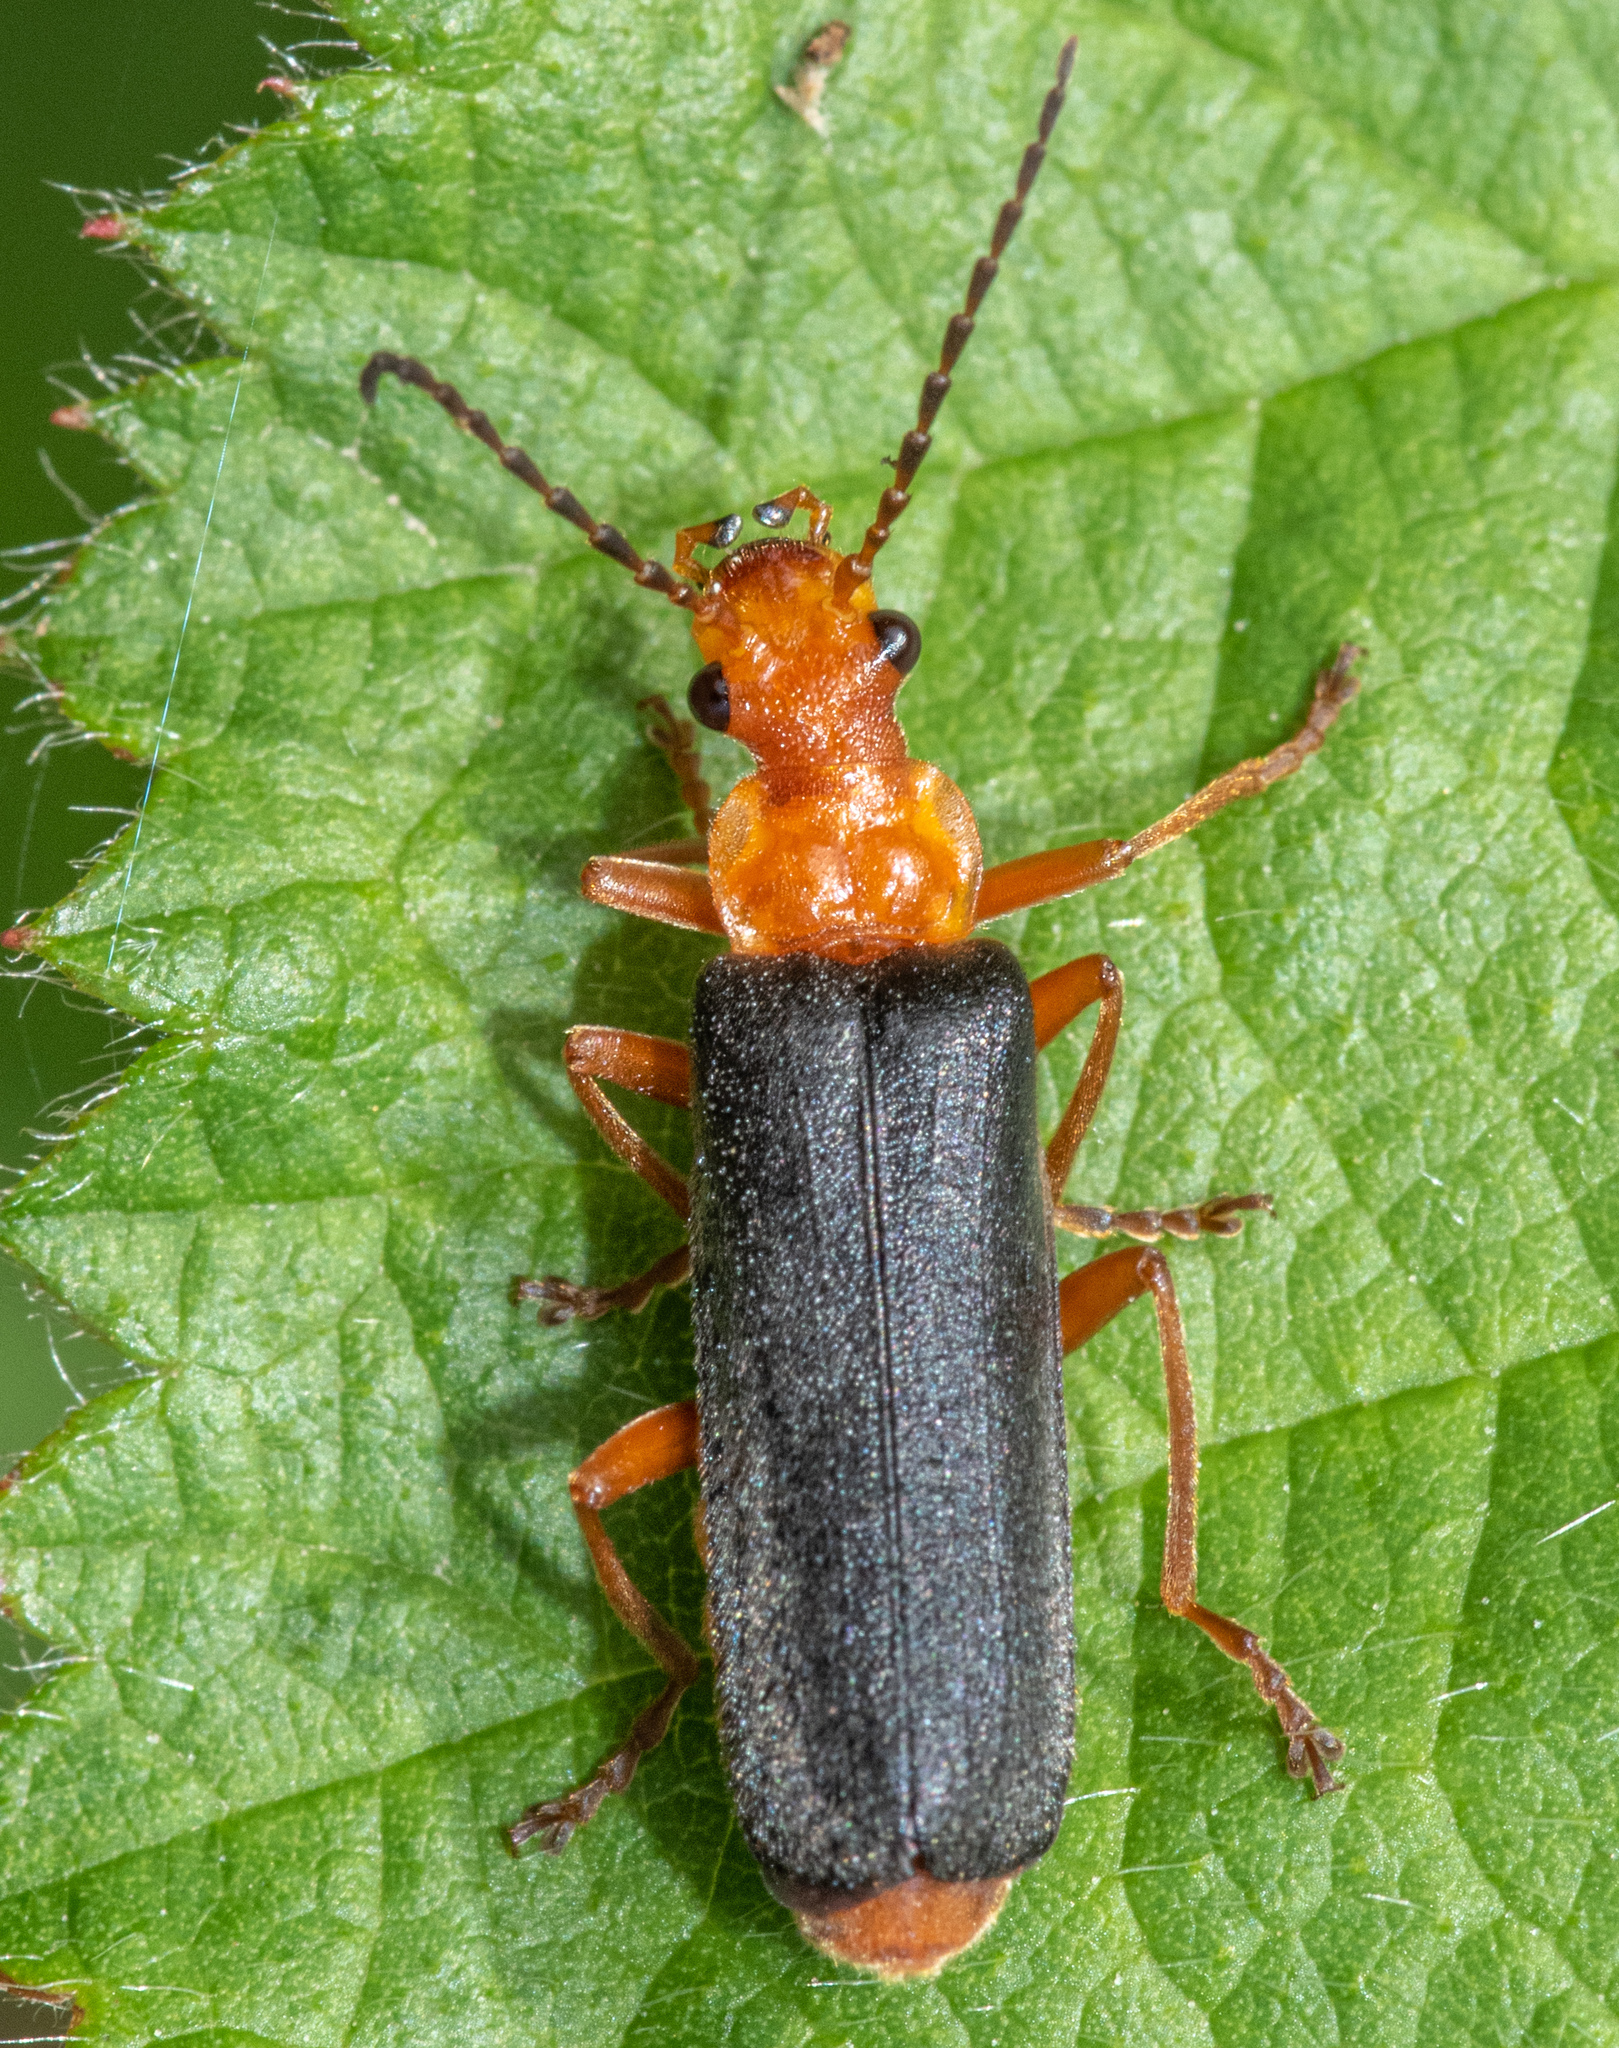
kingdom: Animalia
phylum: Arthropoda
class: Insecta
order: Coleoptera
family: Cantharidae
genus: Podabrus
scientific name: Podabrus pruinosus
